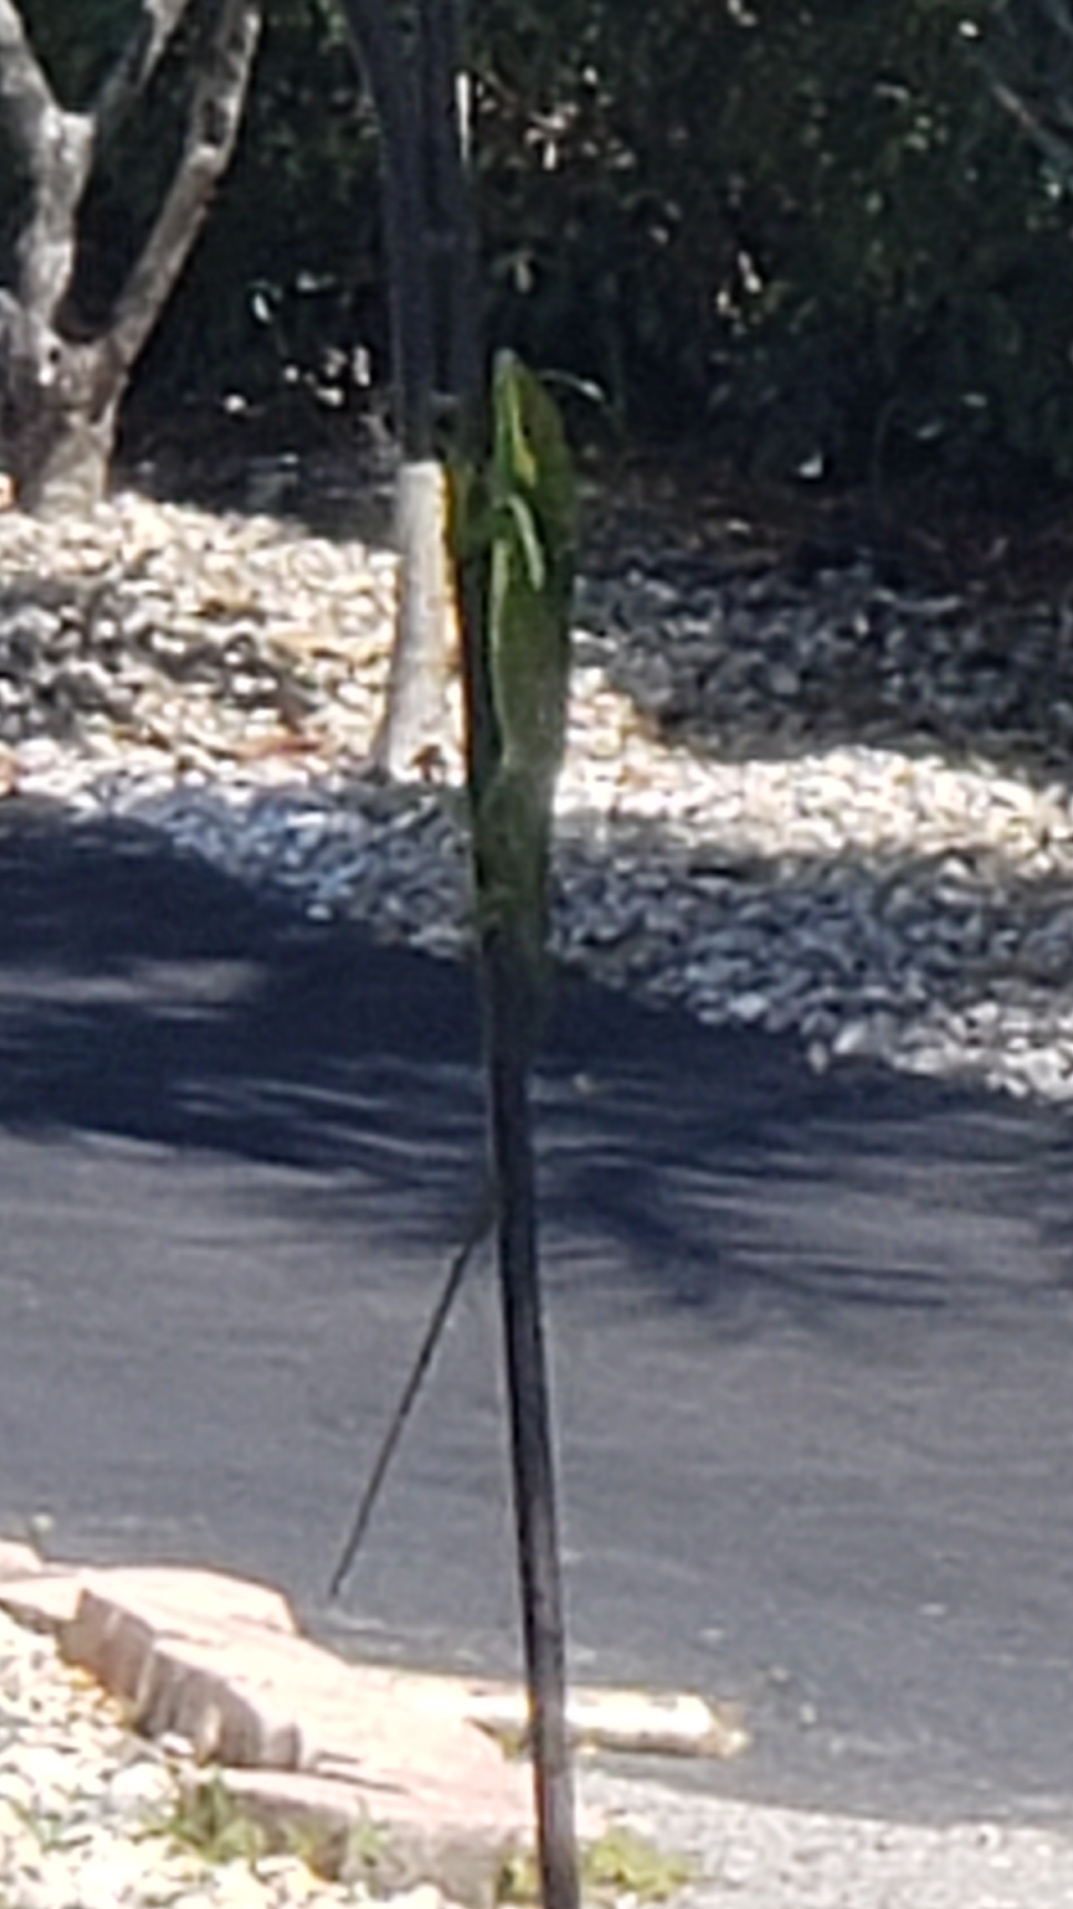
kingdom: Animalia
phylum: Chordata
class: Squamata
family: Dactyloidae
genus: Anolis
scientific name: Anolis equestris
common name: Knight anole
